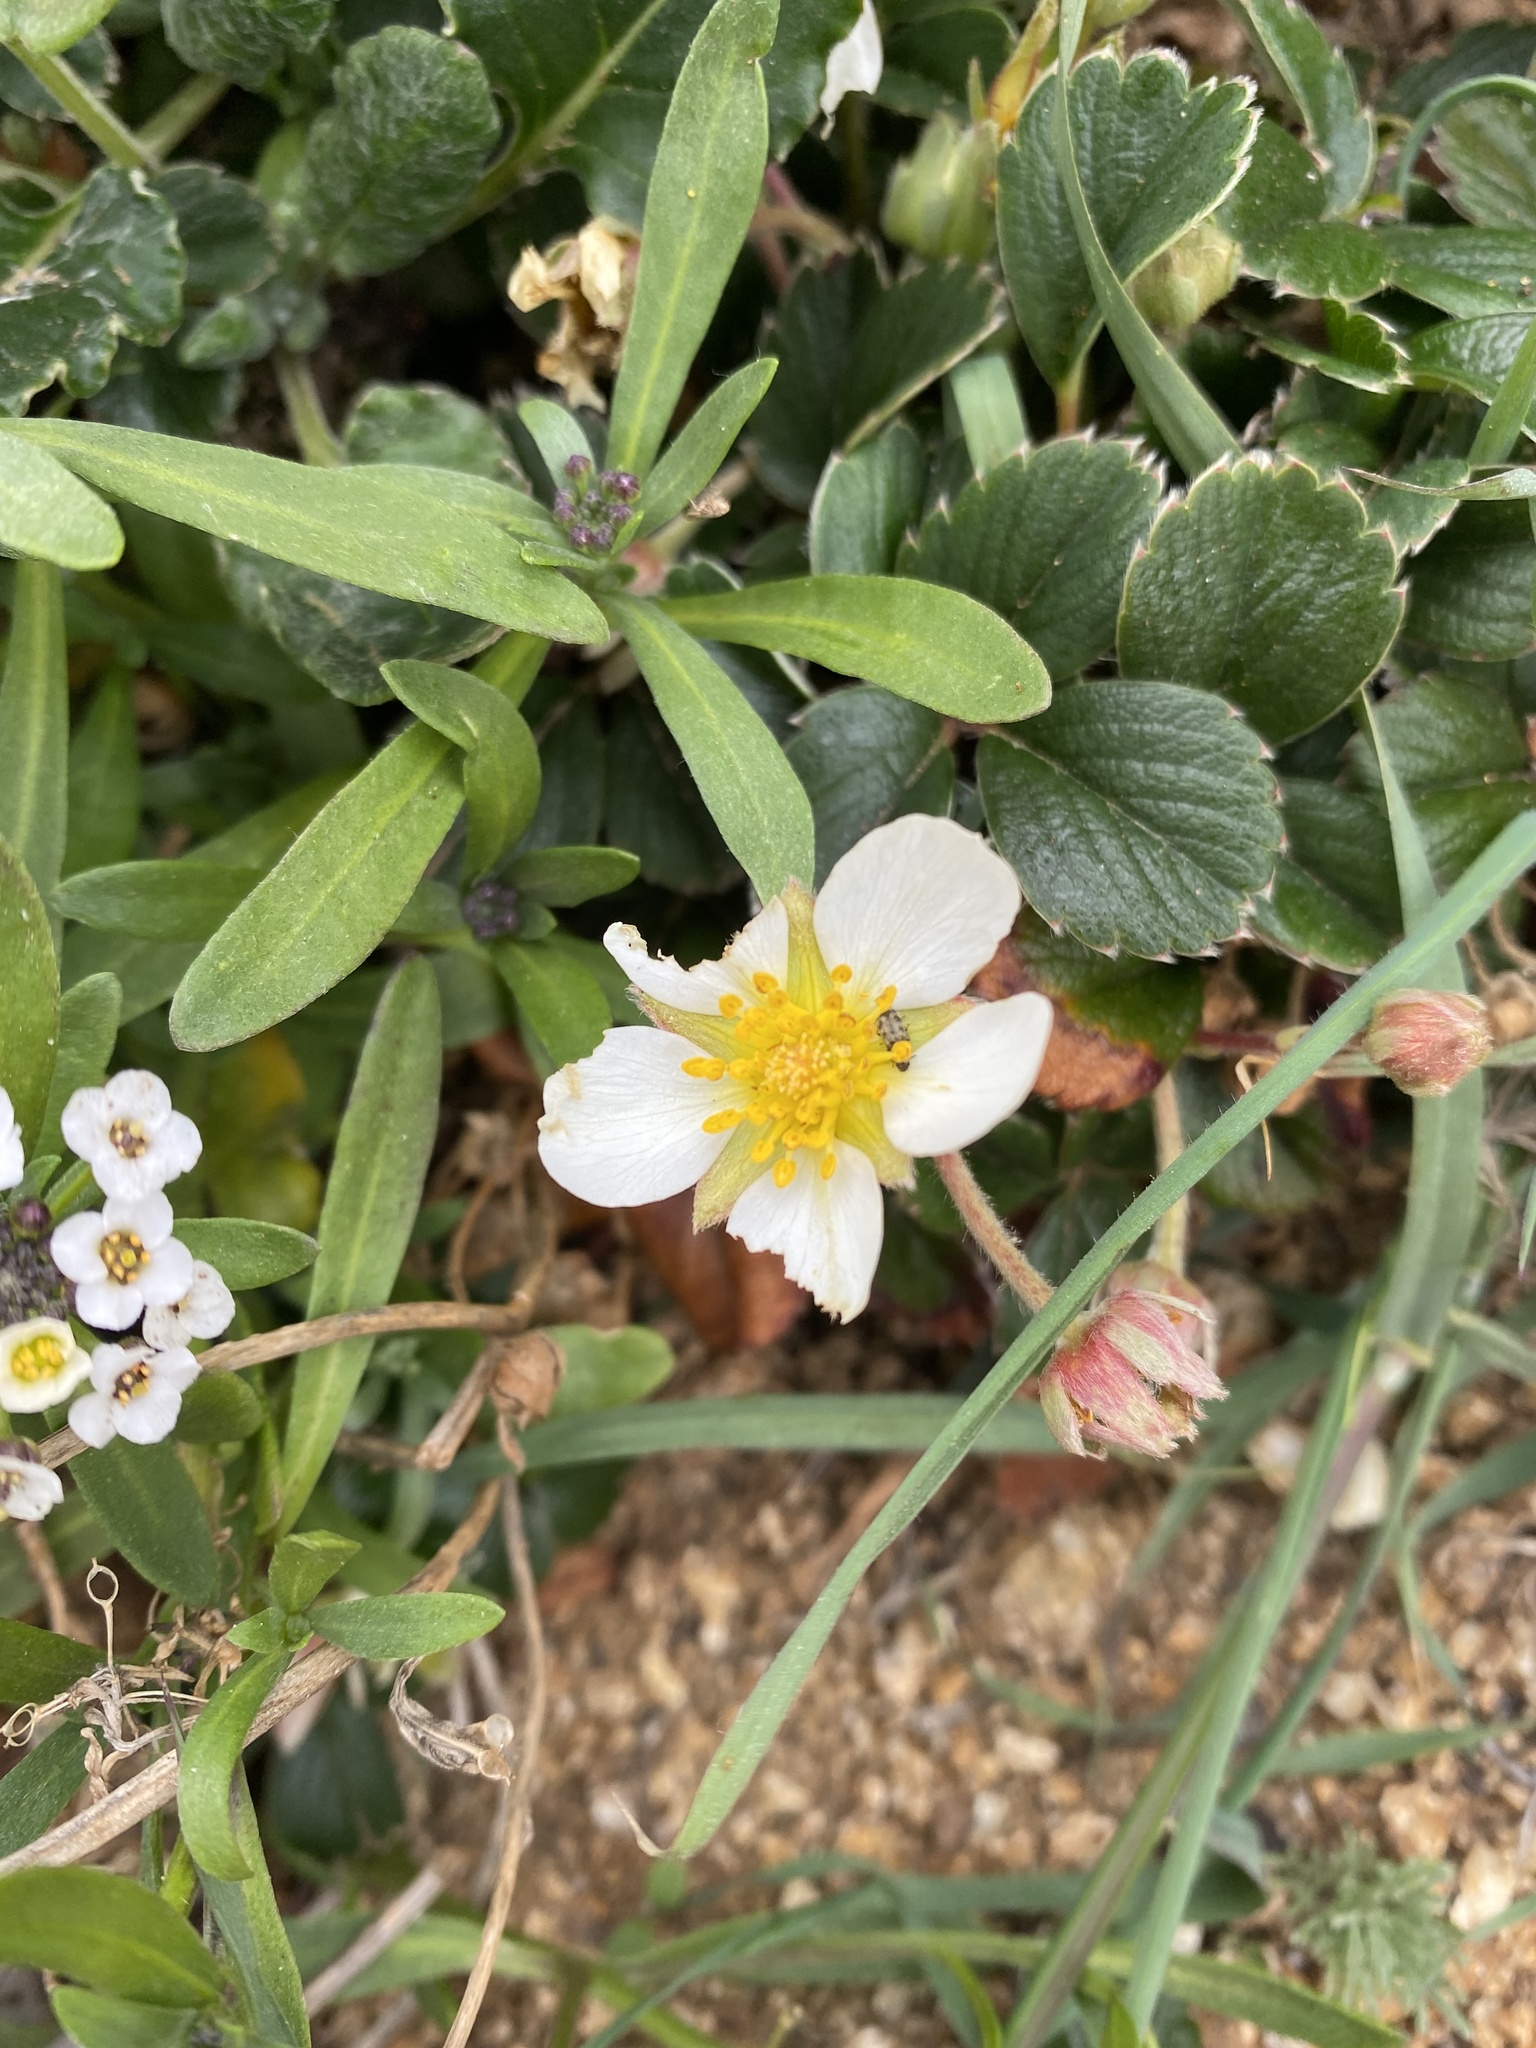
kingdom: Plantae
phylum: Tracheophyta
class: Magnoliopsida
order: Rosales
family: Rosaceae
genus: Fragaria
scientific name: Fragaria chiloensis
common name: Beach strawberry
